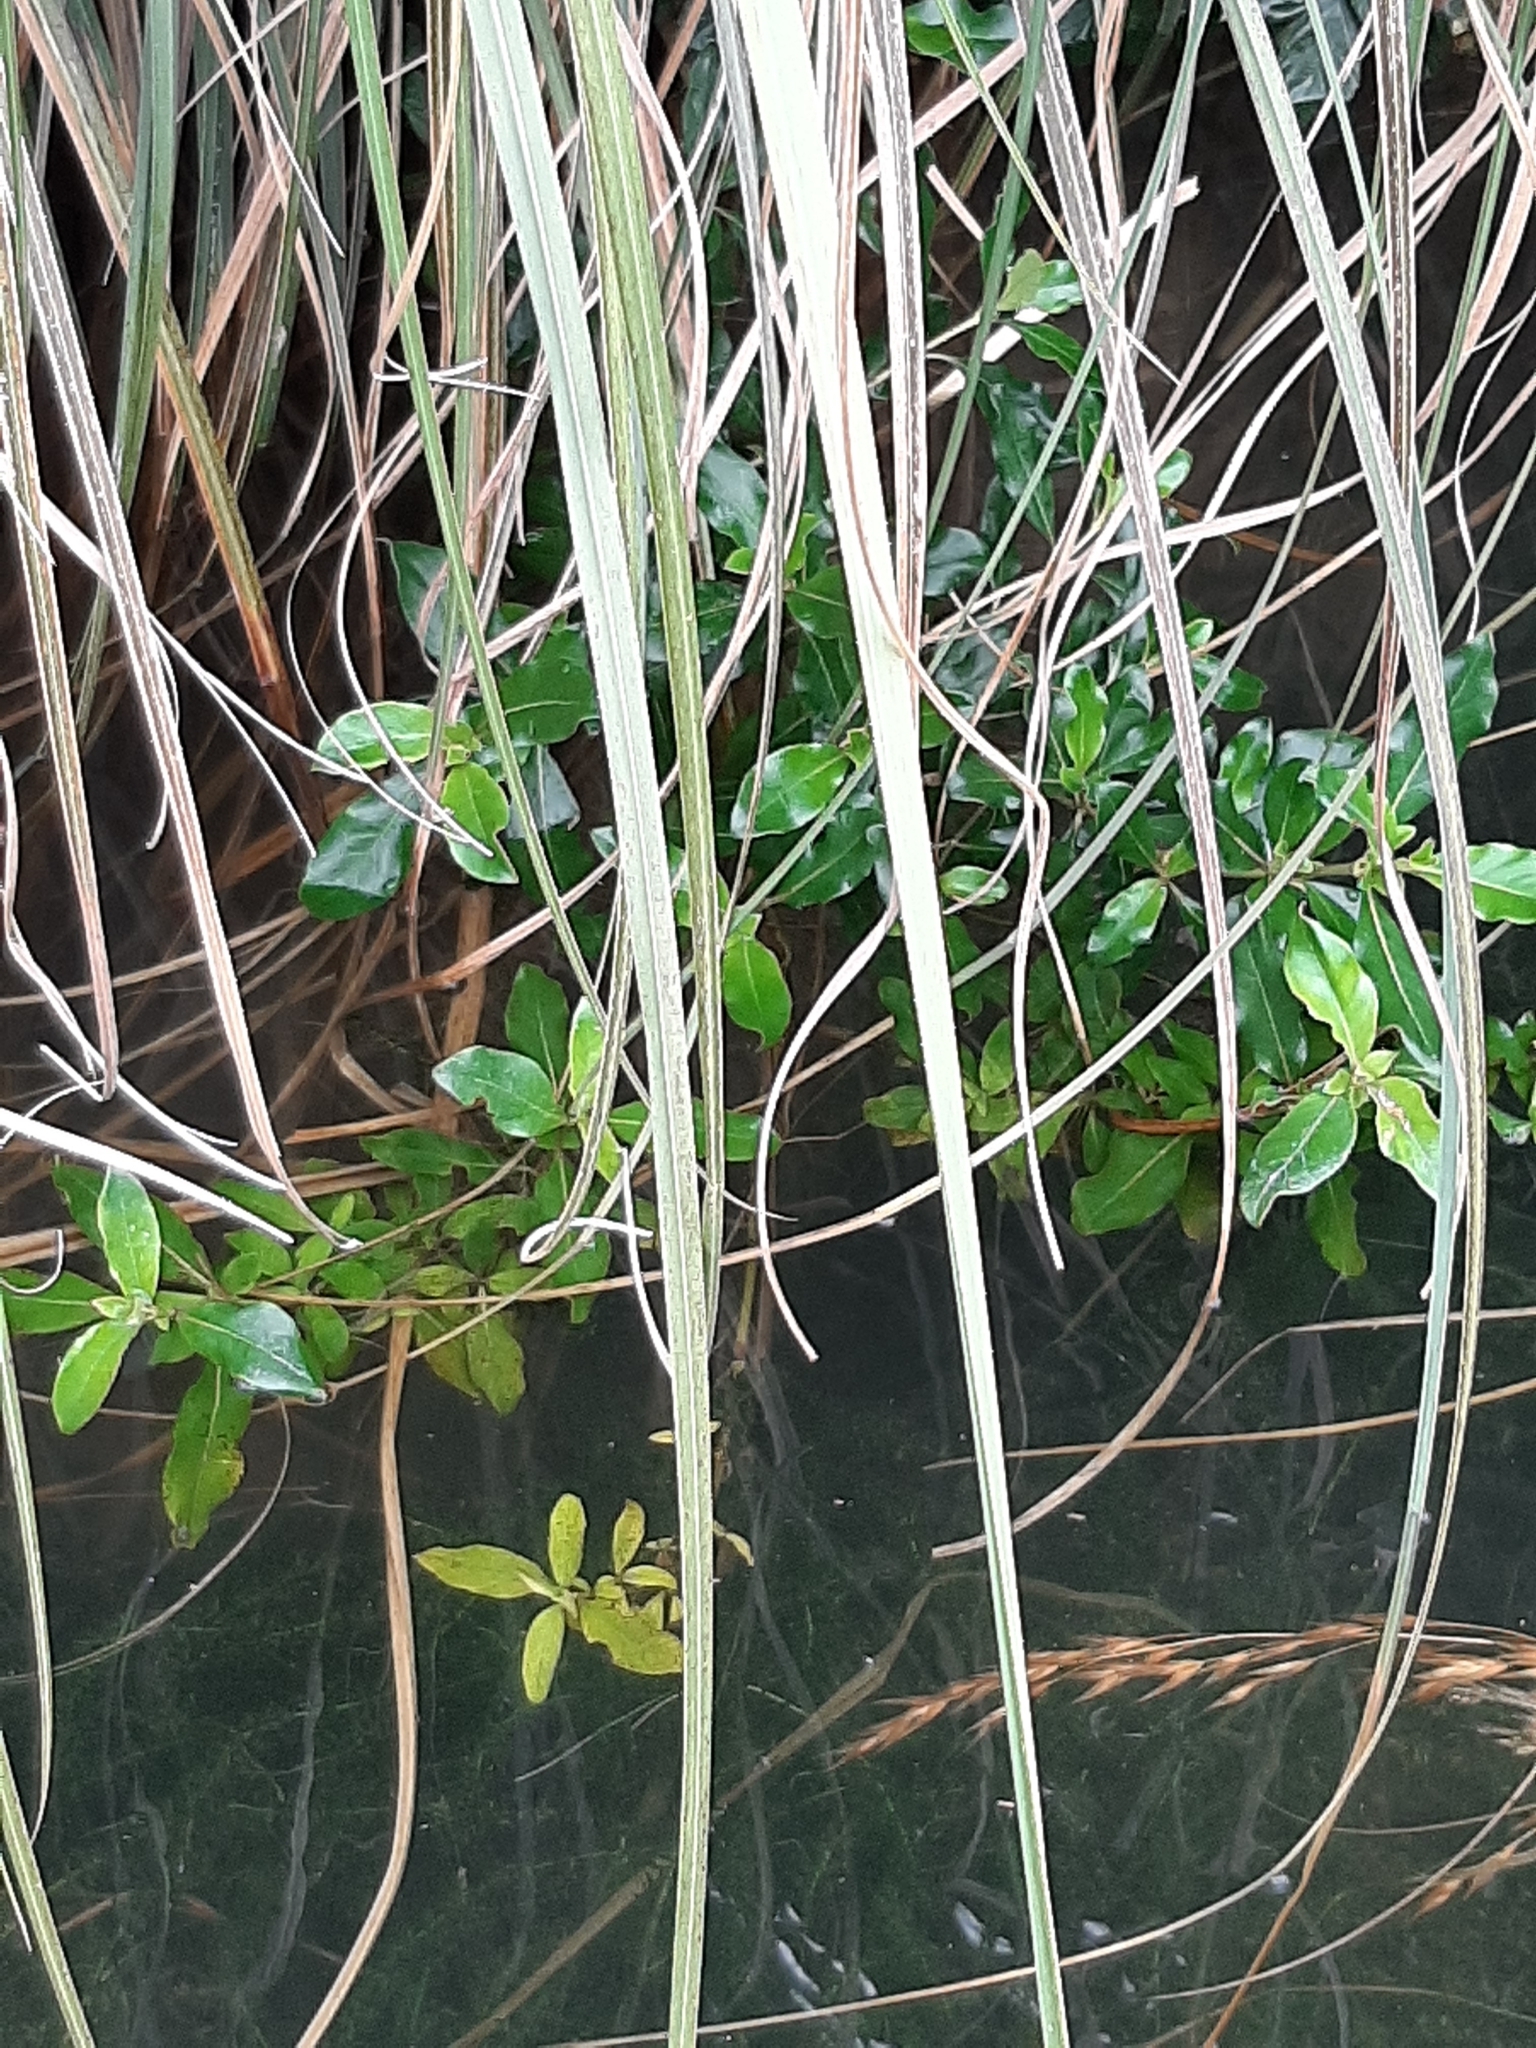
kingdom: Plantae
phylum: Tracheophyta
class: Magnoliopsida
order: Gentianales
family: Rubiaceae
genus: Coprosma
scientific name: Coprosma robusta
